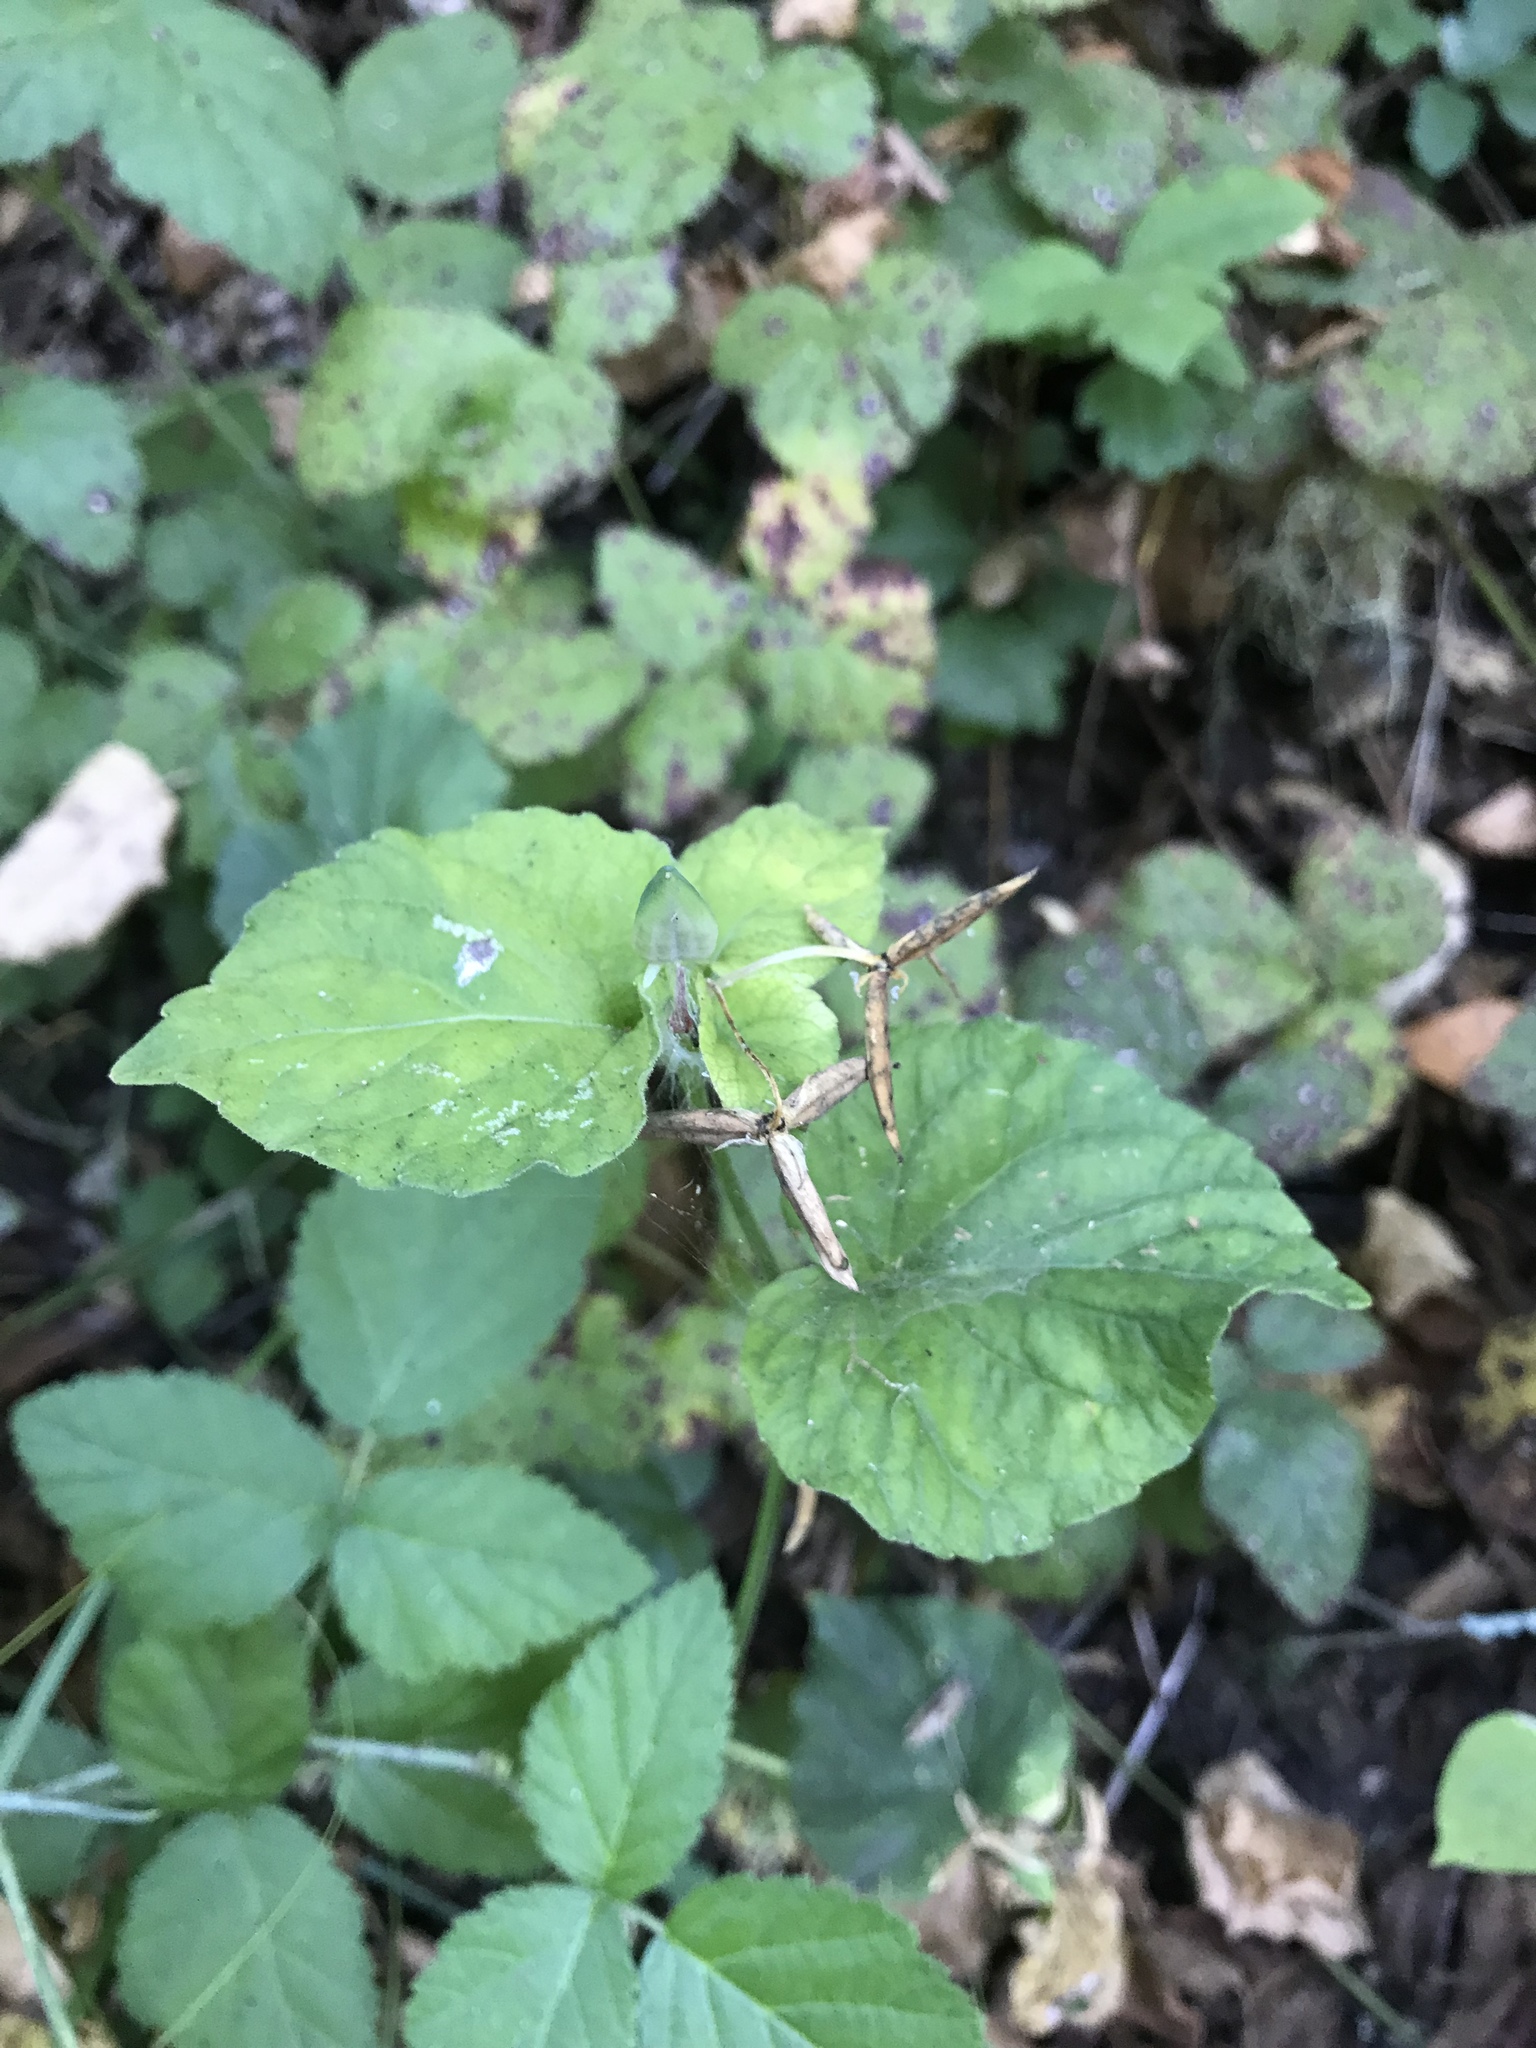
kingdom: Plantae
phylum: Tracheophyta
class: Magnoliopsida
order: Malpighiales
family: Violaceae
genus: Viola
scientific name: Viola glabella
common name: Stream violet
